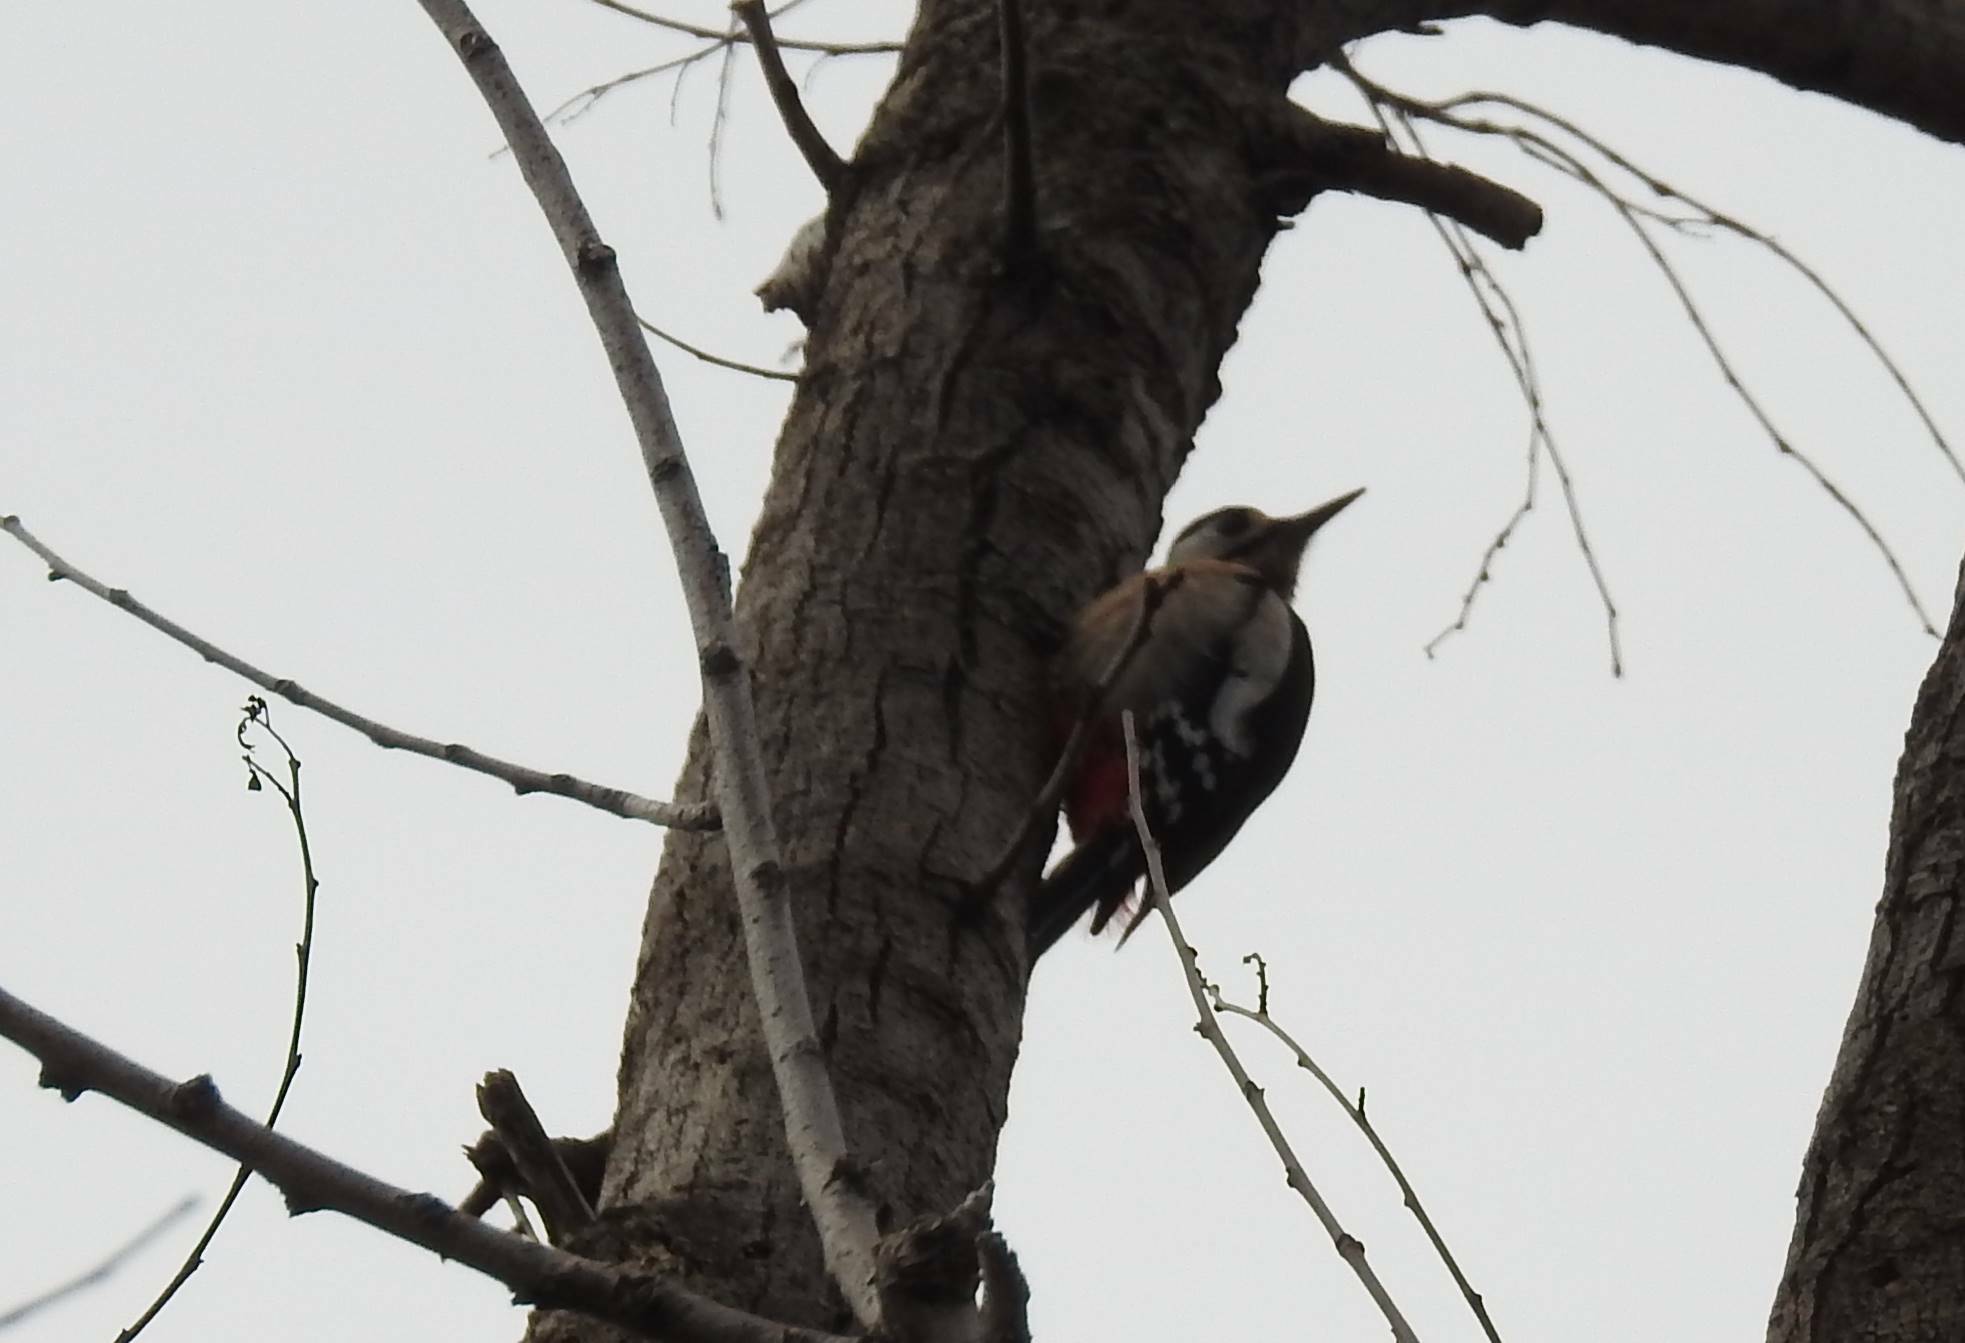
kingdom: Animalia
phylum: Chordata
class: Aves
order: Piciformes
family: Picidae
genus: Dendrocopos
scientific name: Dendrocopos major
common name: Great spotted woodpecker
